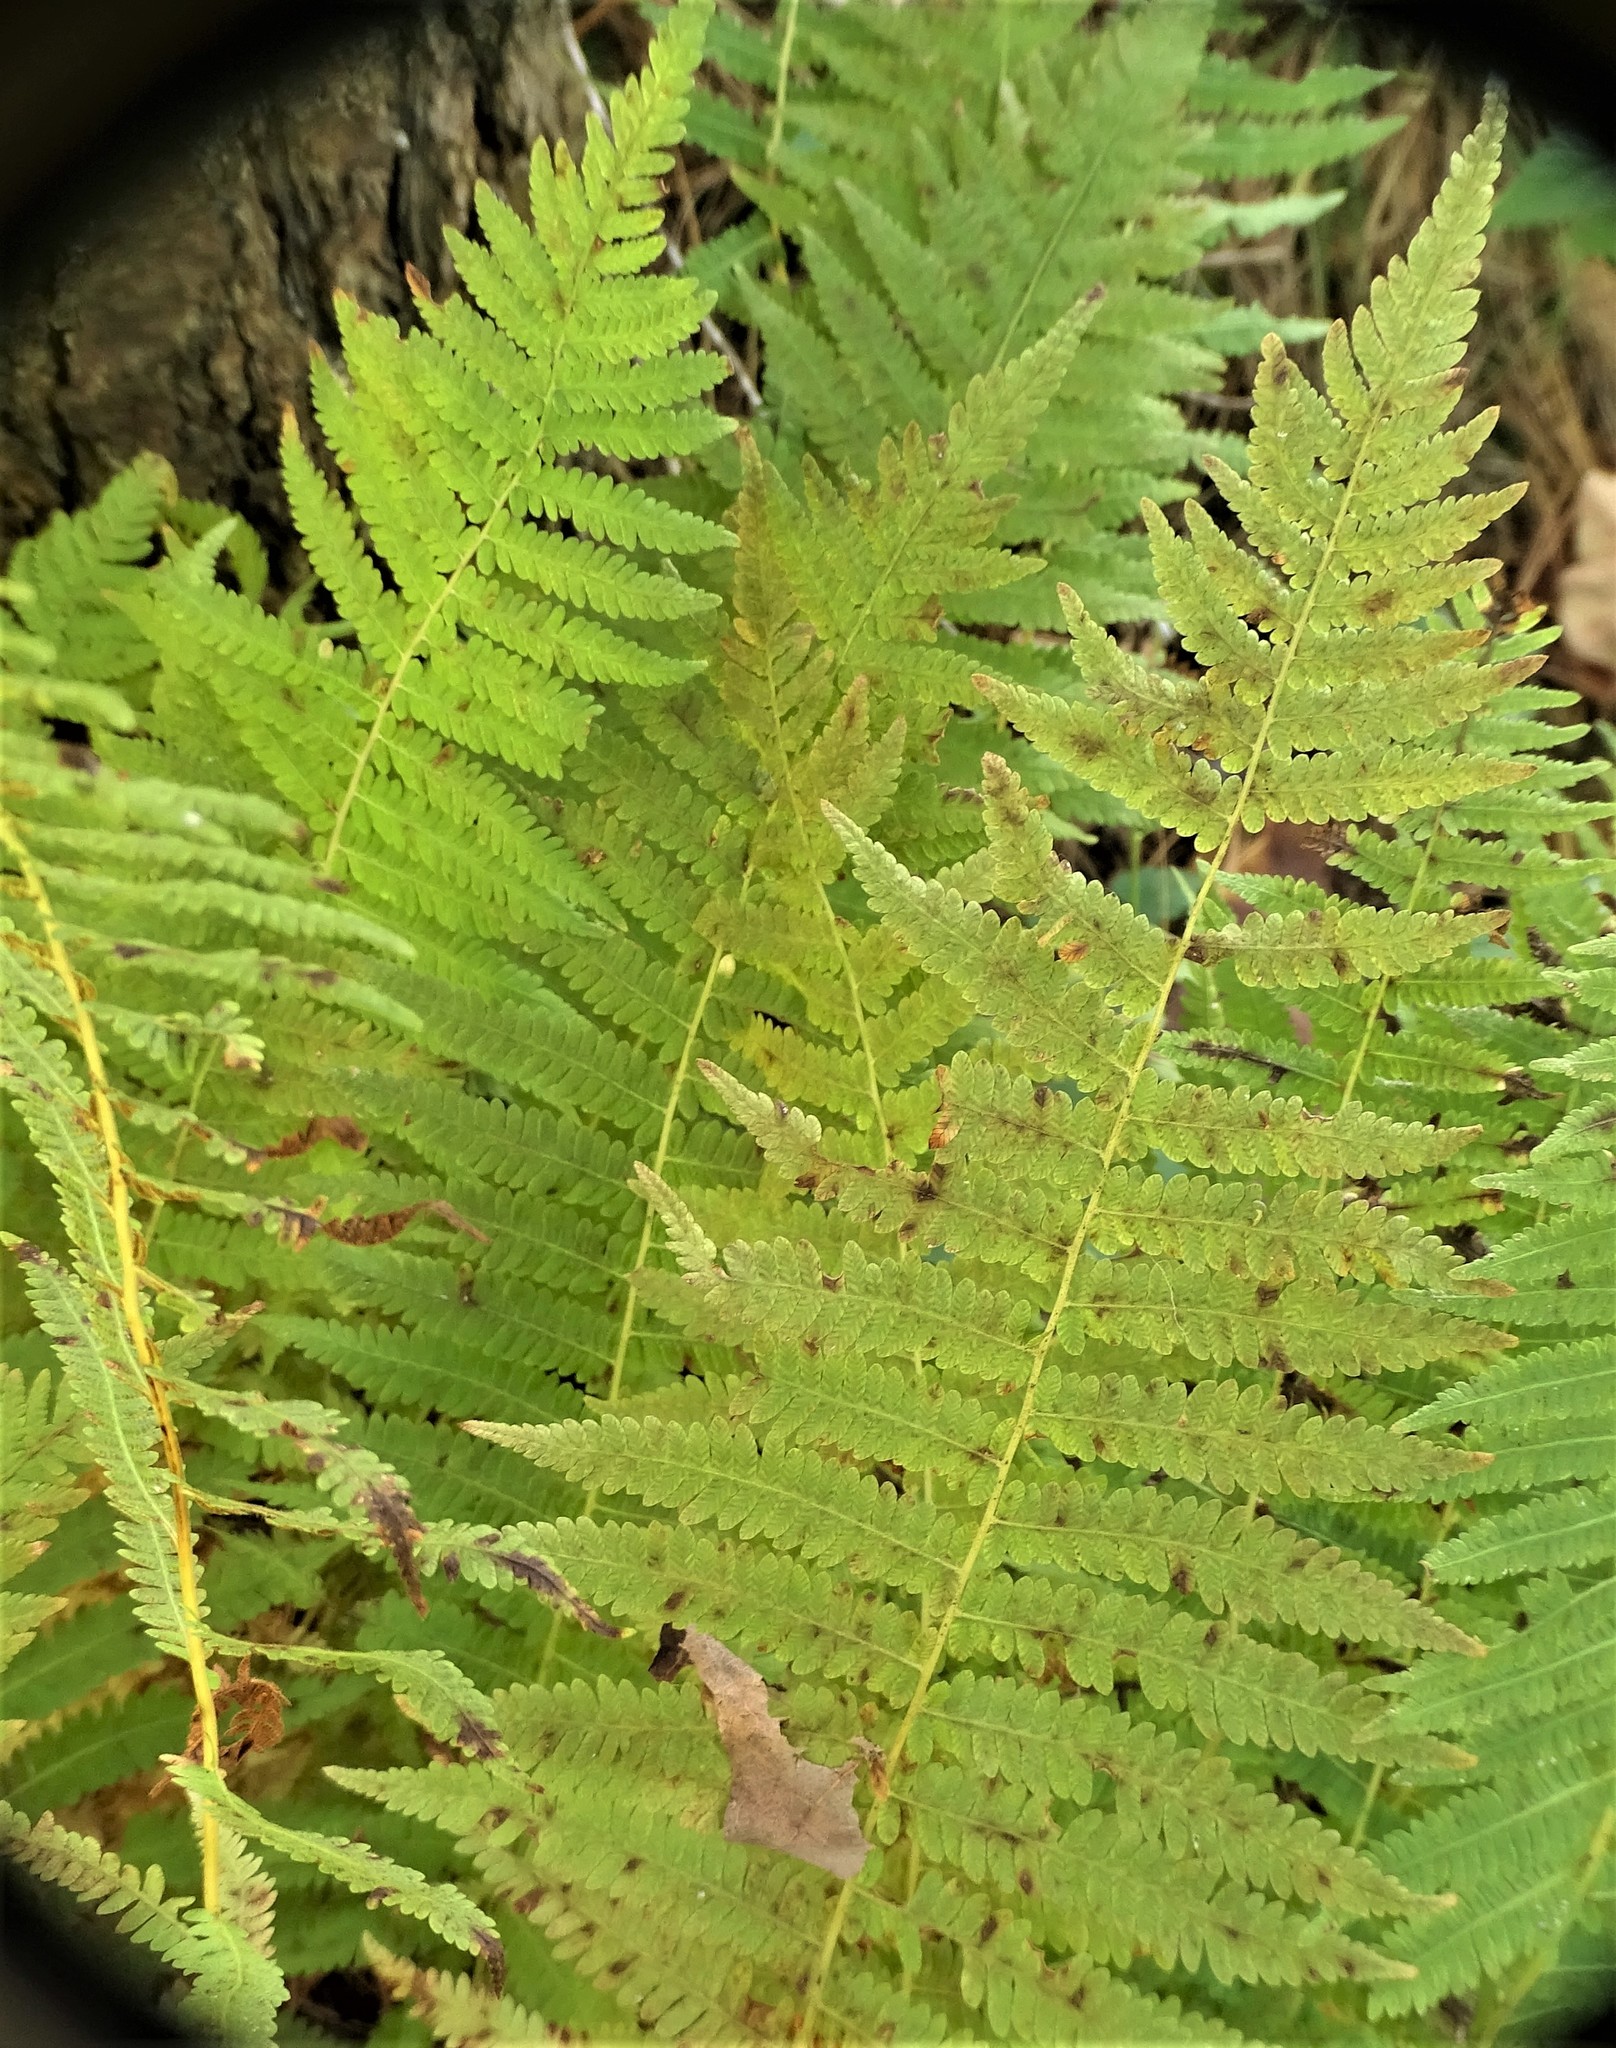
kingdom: Plantae
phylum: Tracheophyta
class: Polypodiopsida
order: Polypodiales
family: Thelypteridaceae
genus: Amauropelta
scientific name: Amauropelta noveboracensis
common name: New york fern
